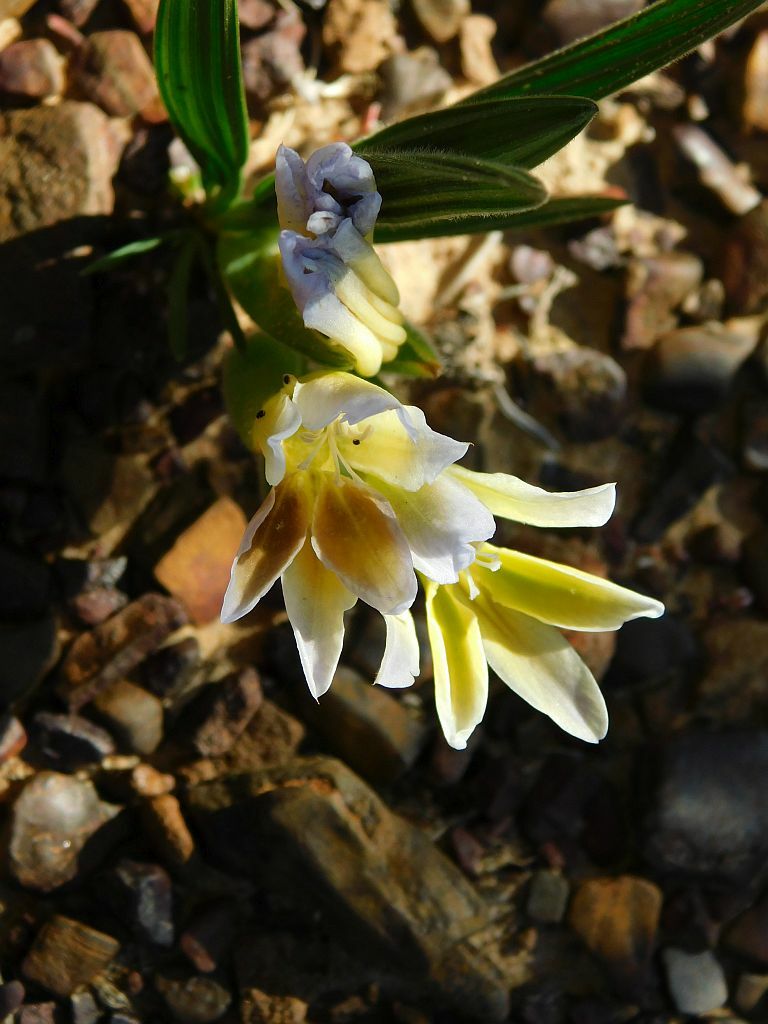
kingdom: Plantae
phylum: Tracheophyta
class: Liliopsida
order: Asparagales
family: Iridaceae
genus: Babiana
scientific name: Babiana vanzijliae
